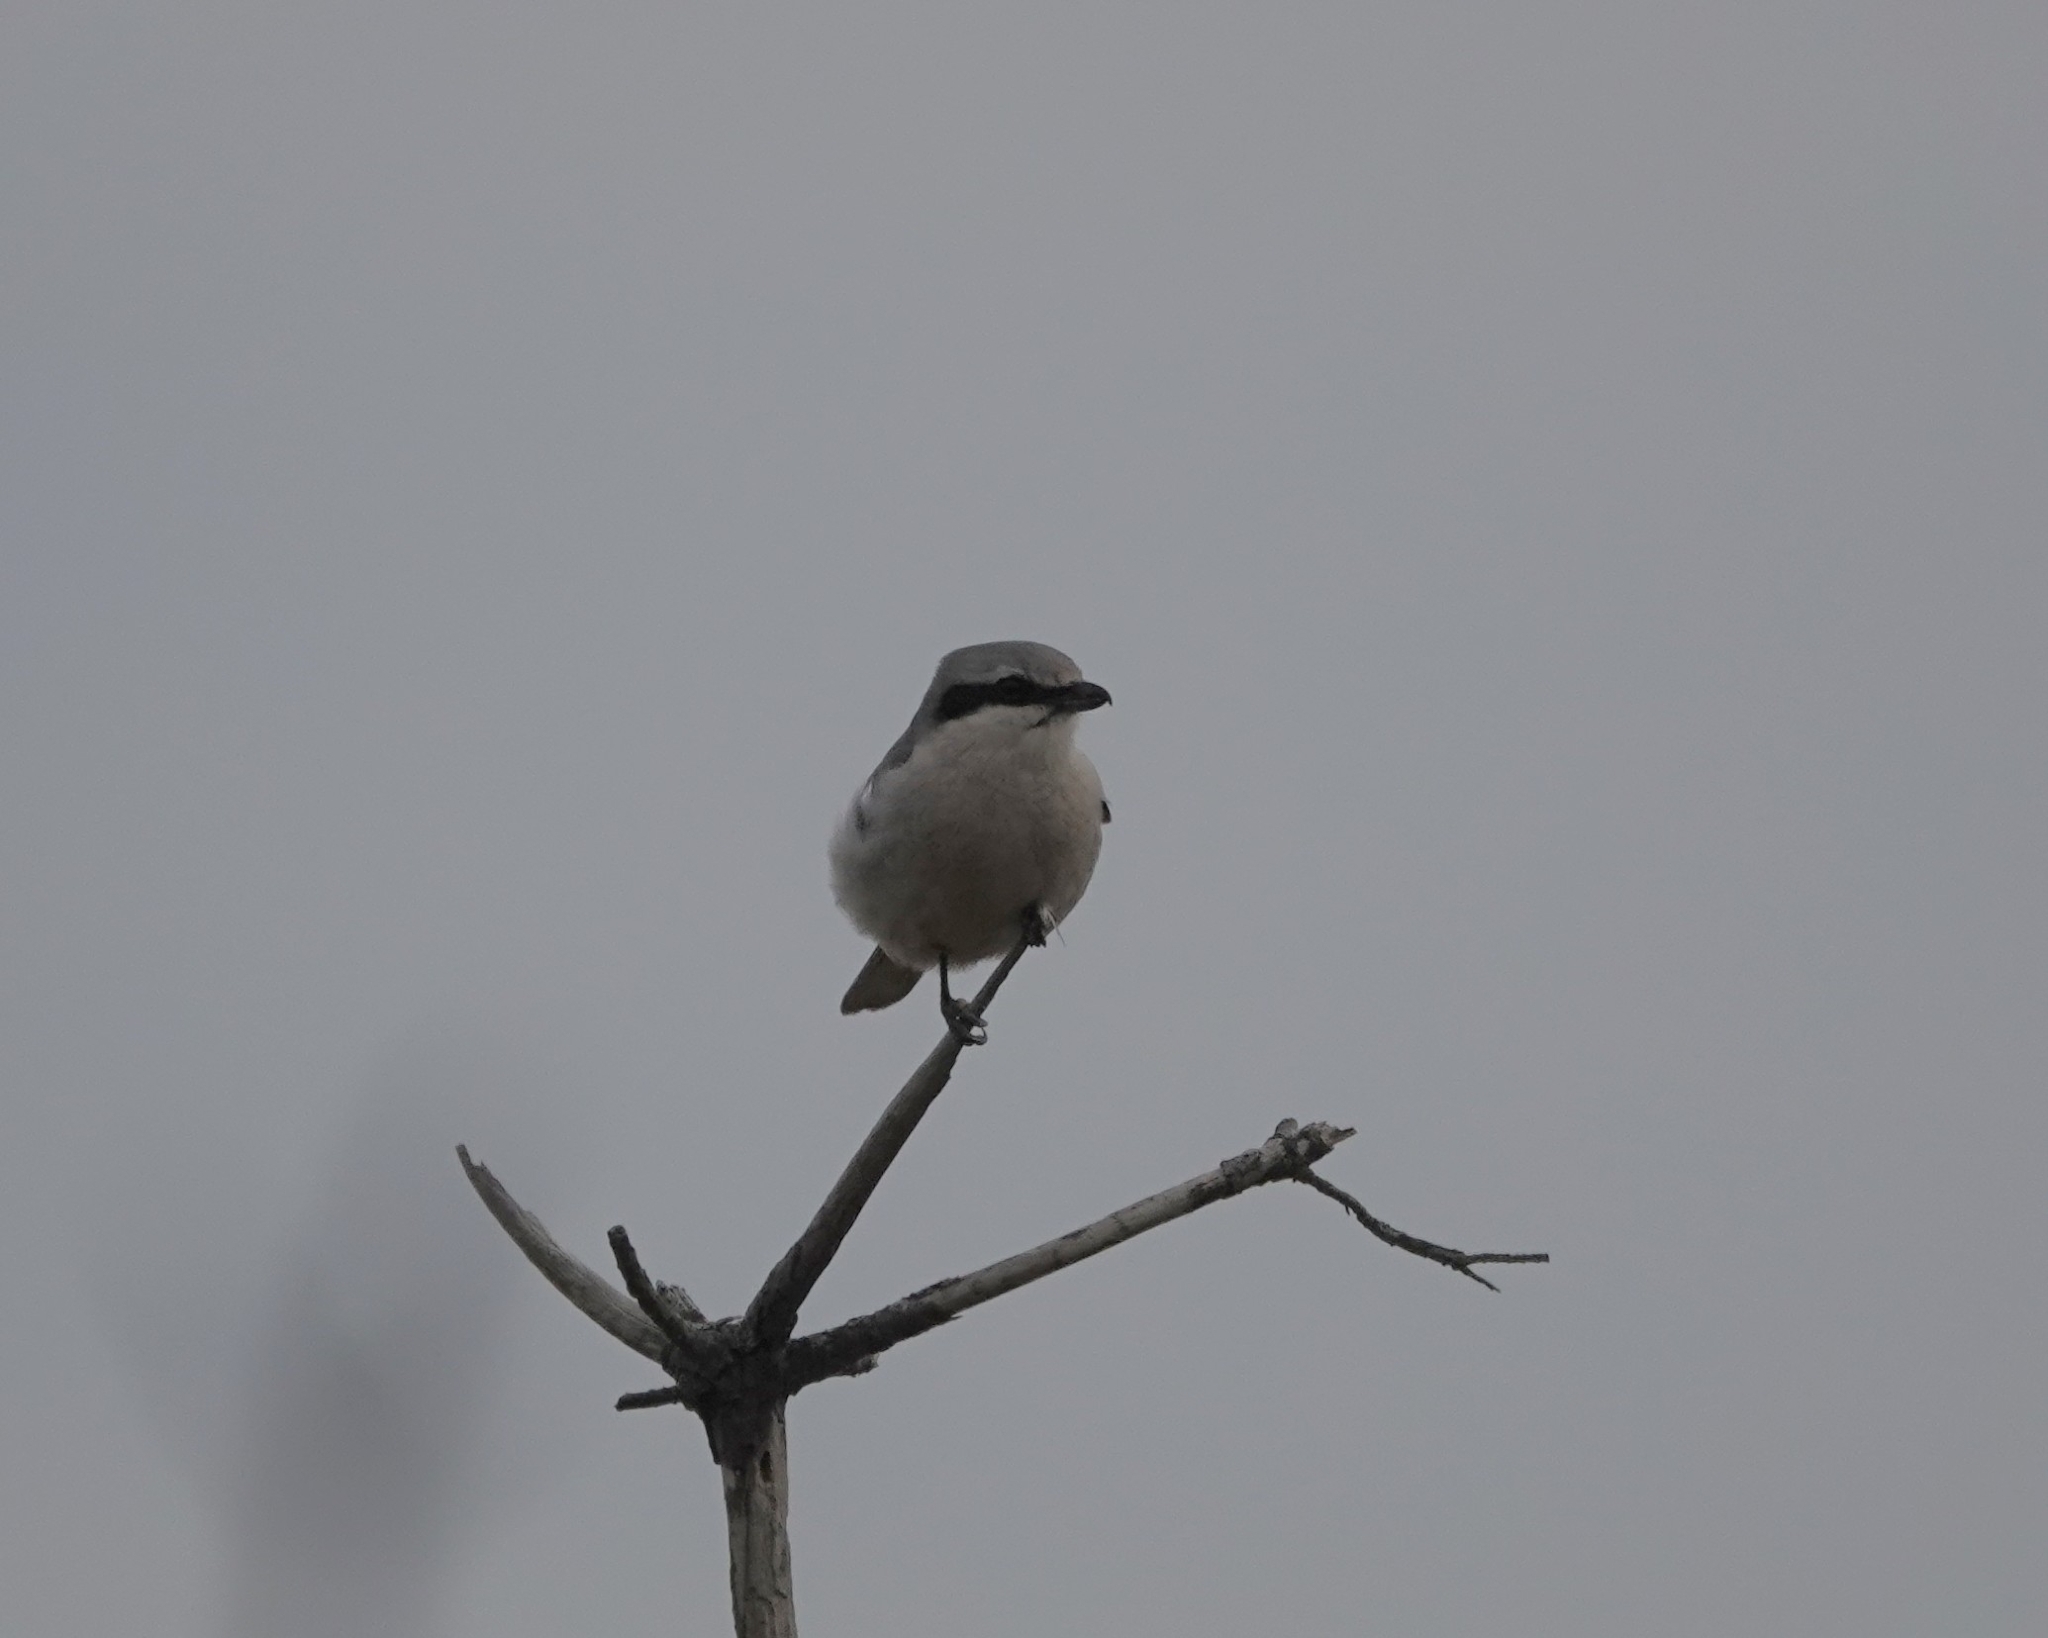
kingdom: Animalia
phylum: Chordata
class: Aves
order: Passeriformes
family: Laniidae
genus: Lanius
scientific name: Lanius excubitor
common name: Great grey shrike
